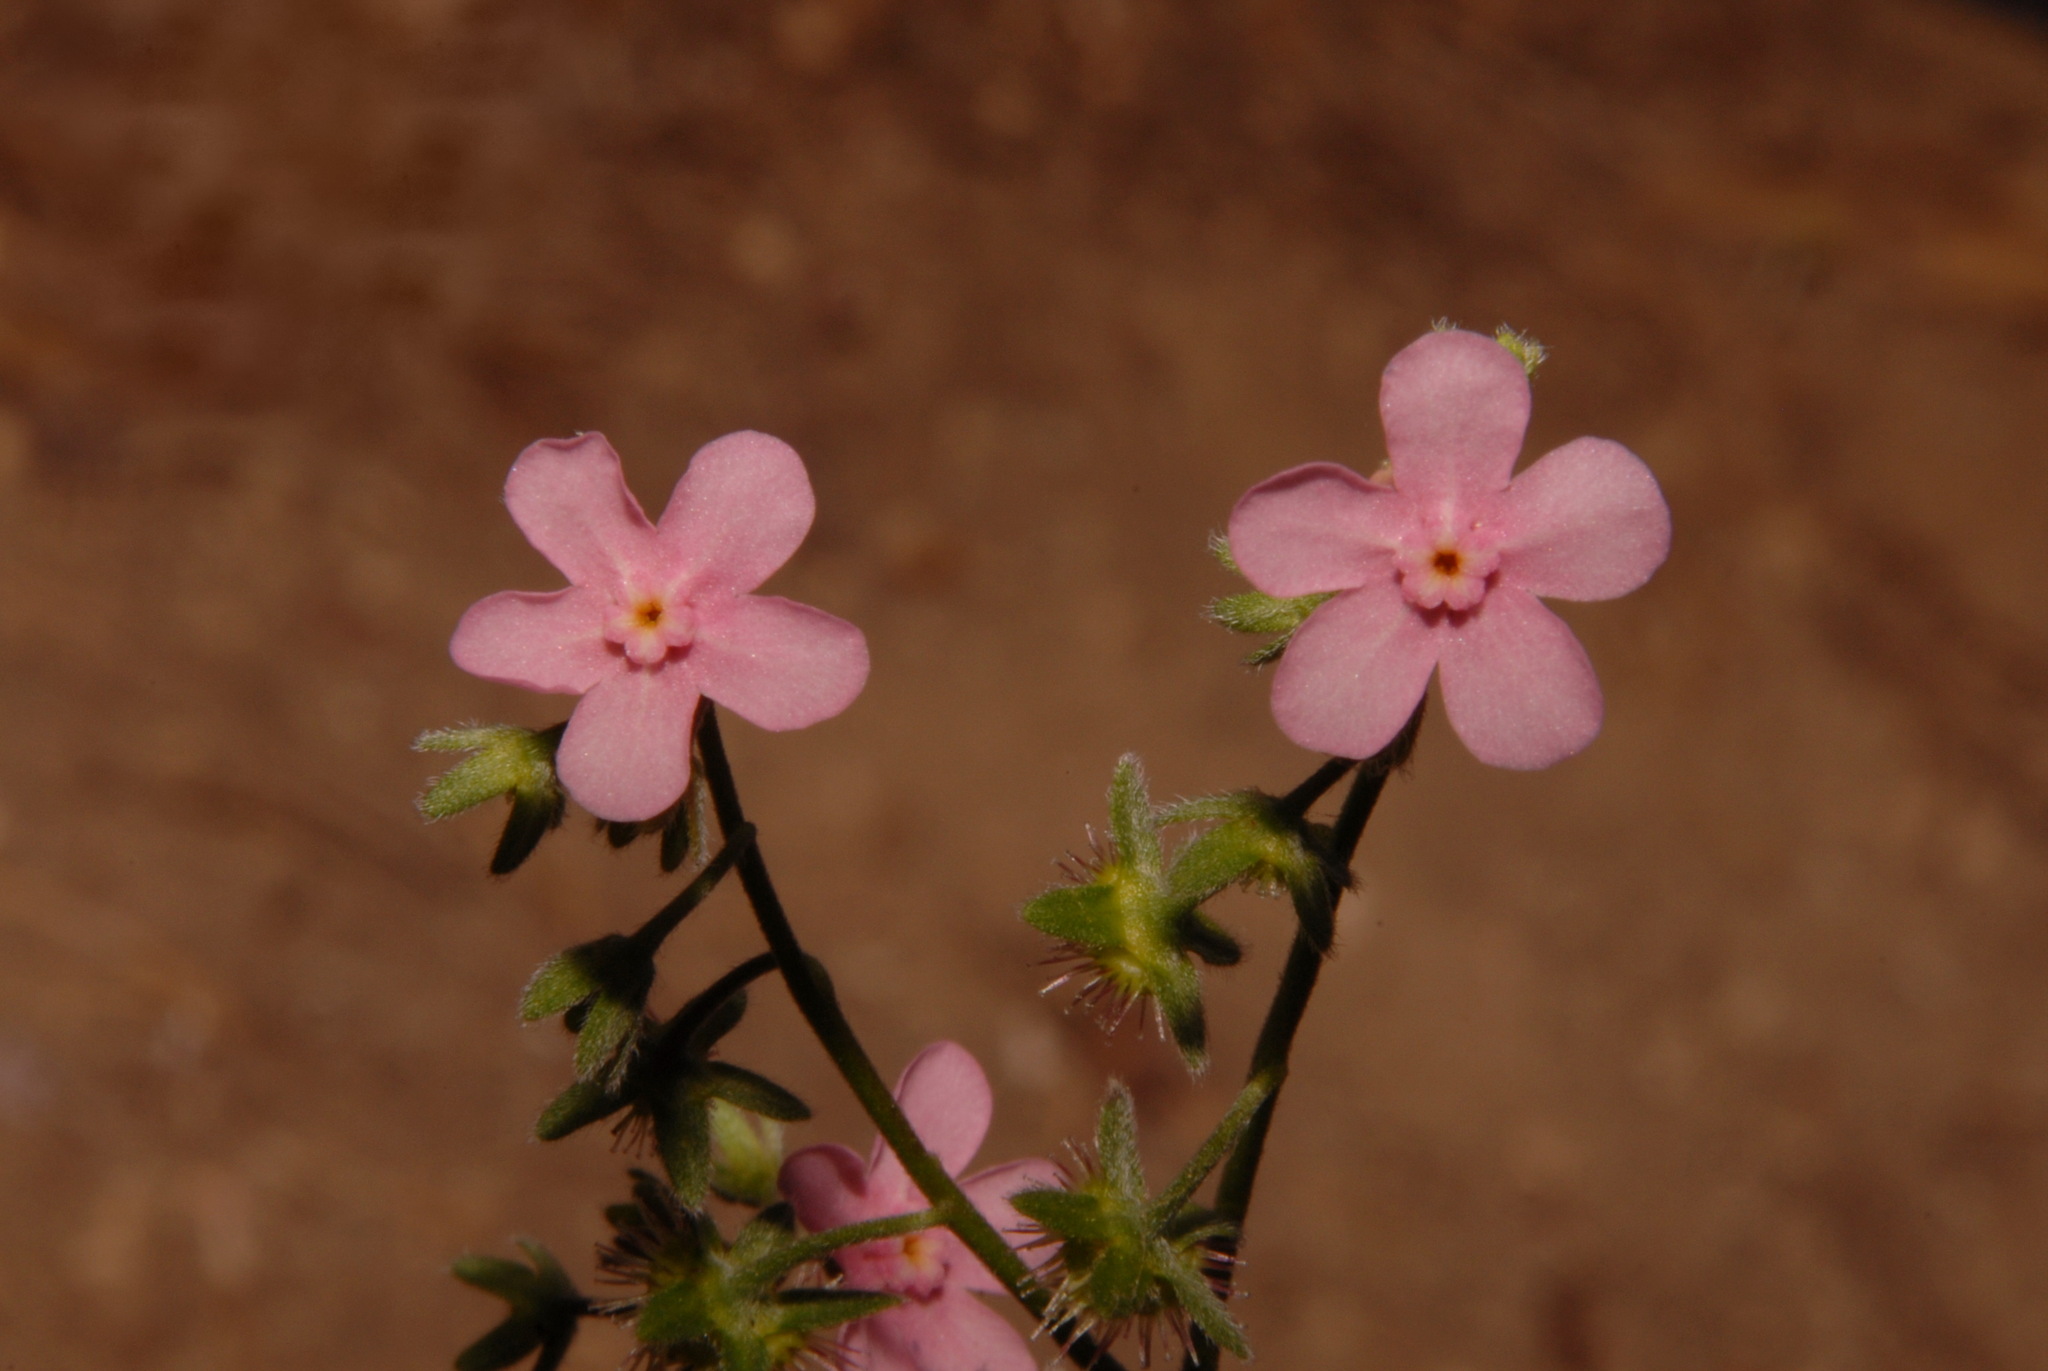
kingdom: Plantae
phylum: Tracheophyta
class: Magnoliopsida
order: Boraginales
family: Boraginaceae
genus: Hackelia
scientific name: Hackelia mundula
